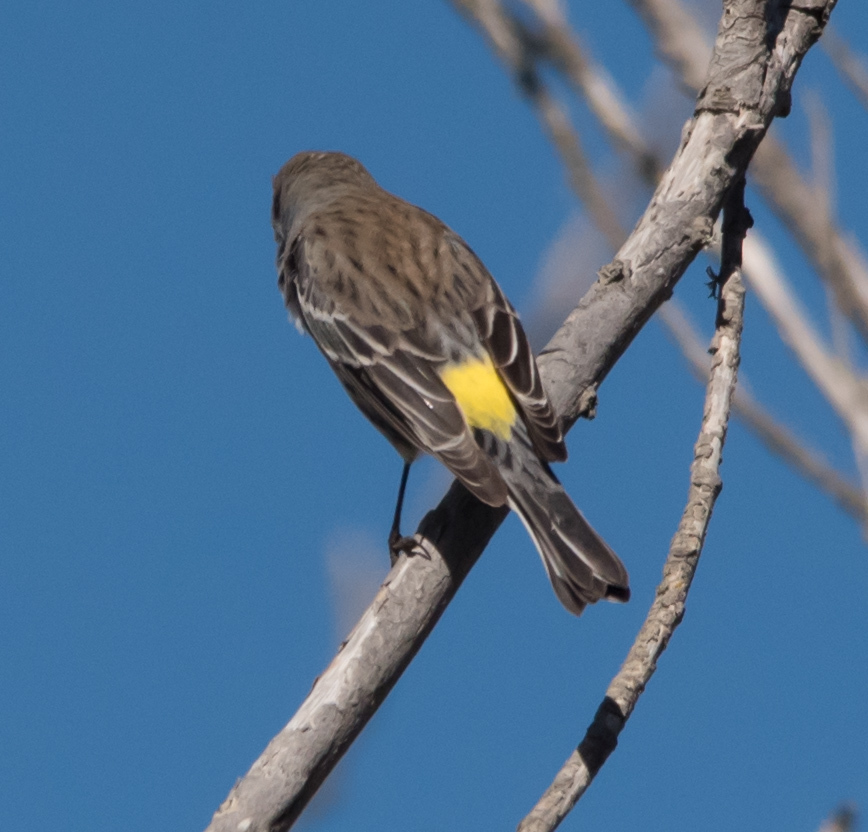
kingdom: Animalia
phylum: Chordata
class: Aves
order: Passeriformes
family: Parulidae
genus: Setophaga
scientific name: Setophaga coronata
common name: Myrtle warbler
